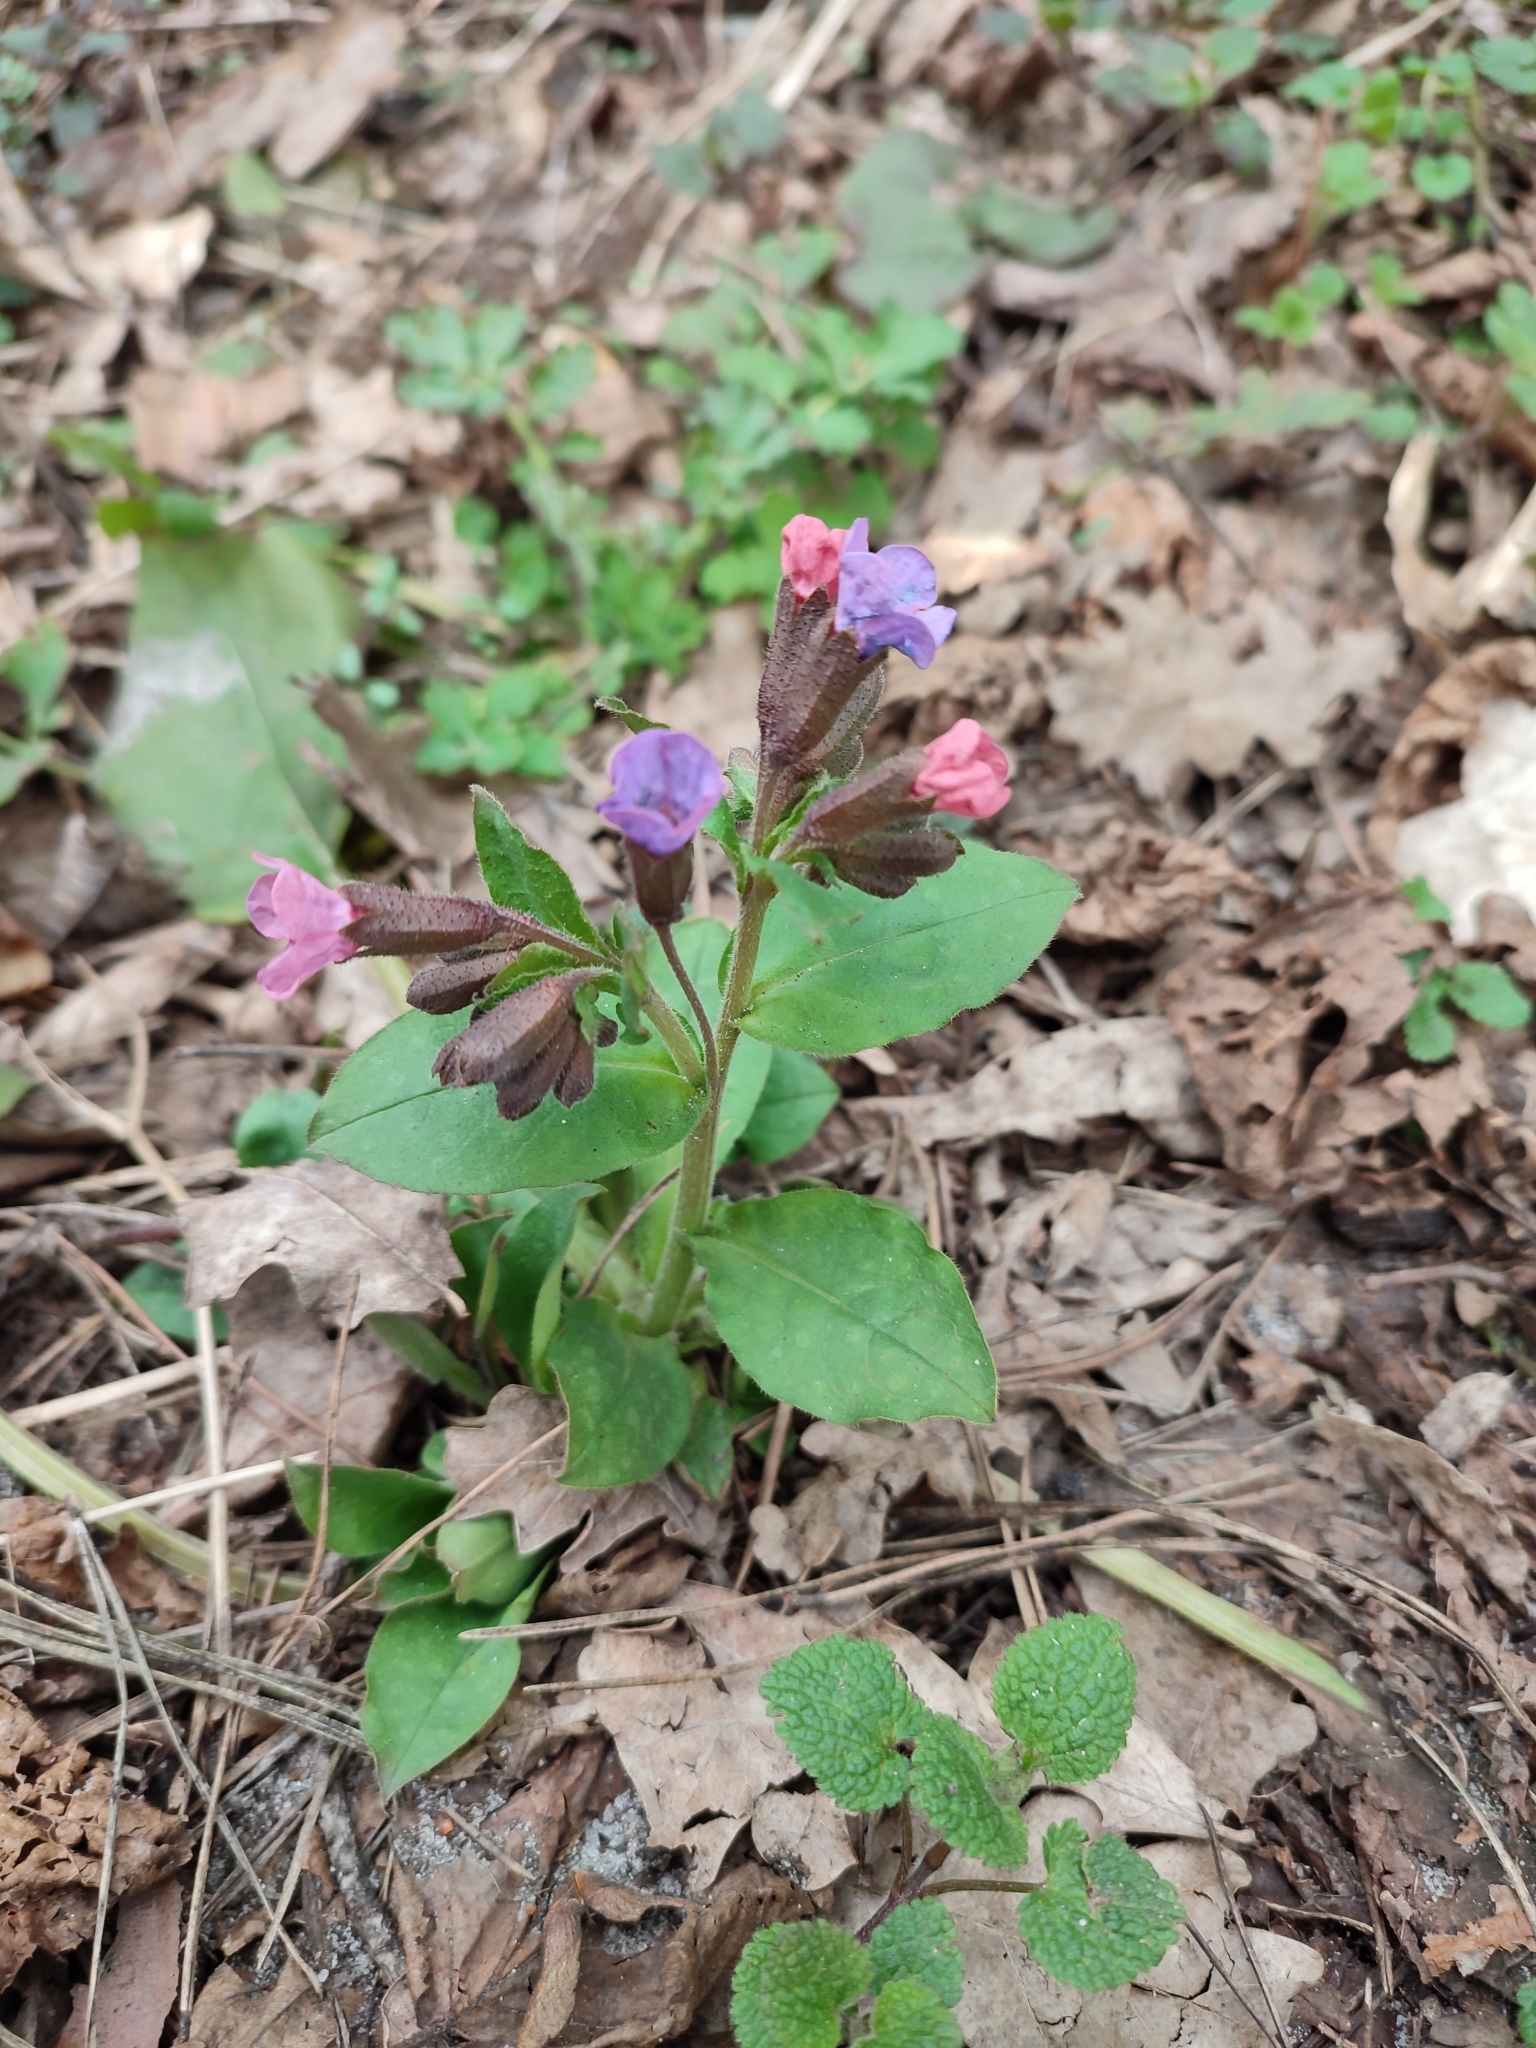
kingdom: Plantae
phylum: Tracheophyta
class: Magnoliopsida
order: Boraginales
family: Boraginaceae
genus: Pulmonaria
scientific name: Pulmonaria obscura
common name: Suffolk lungwort
